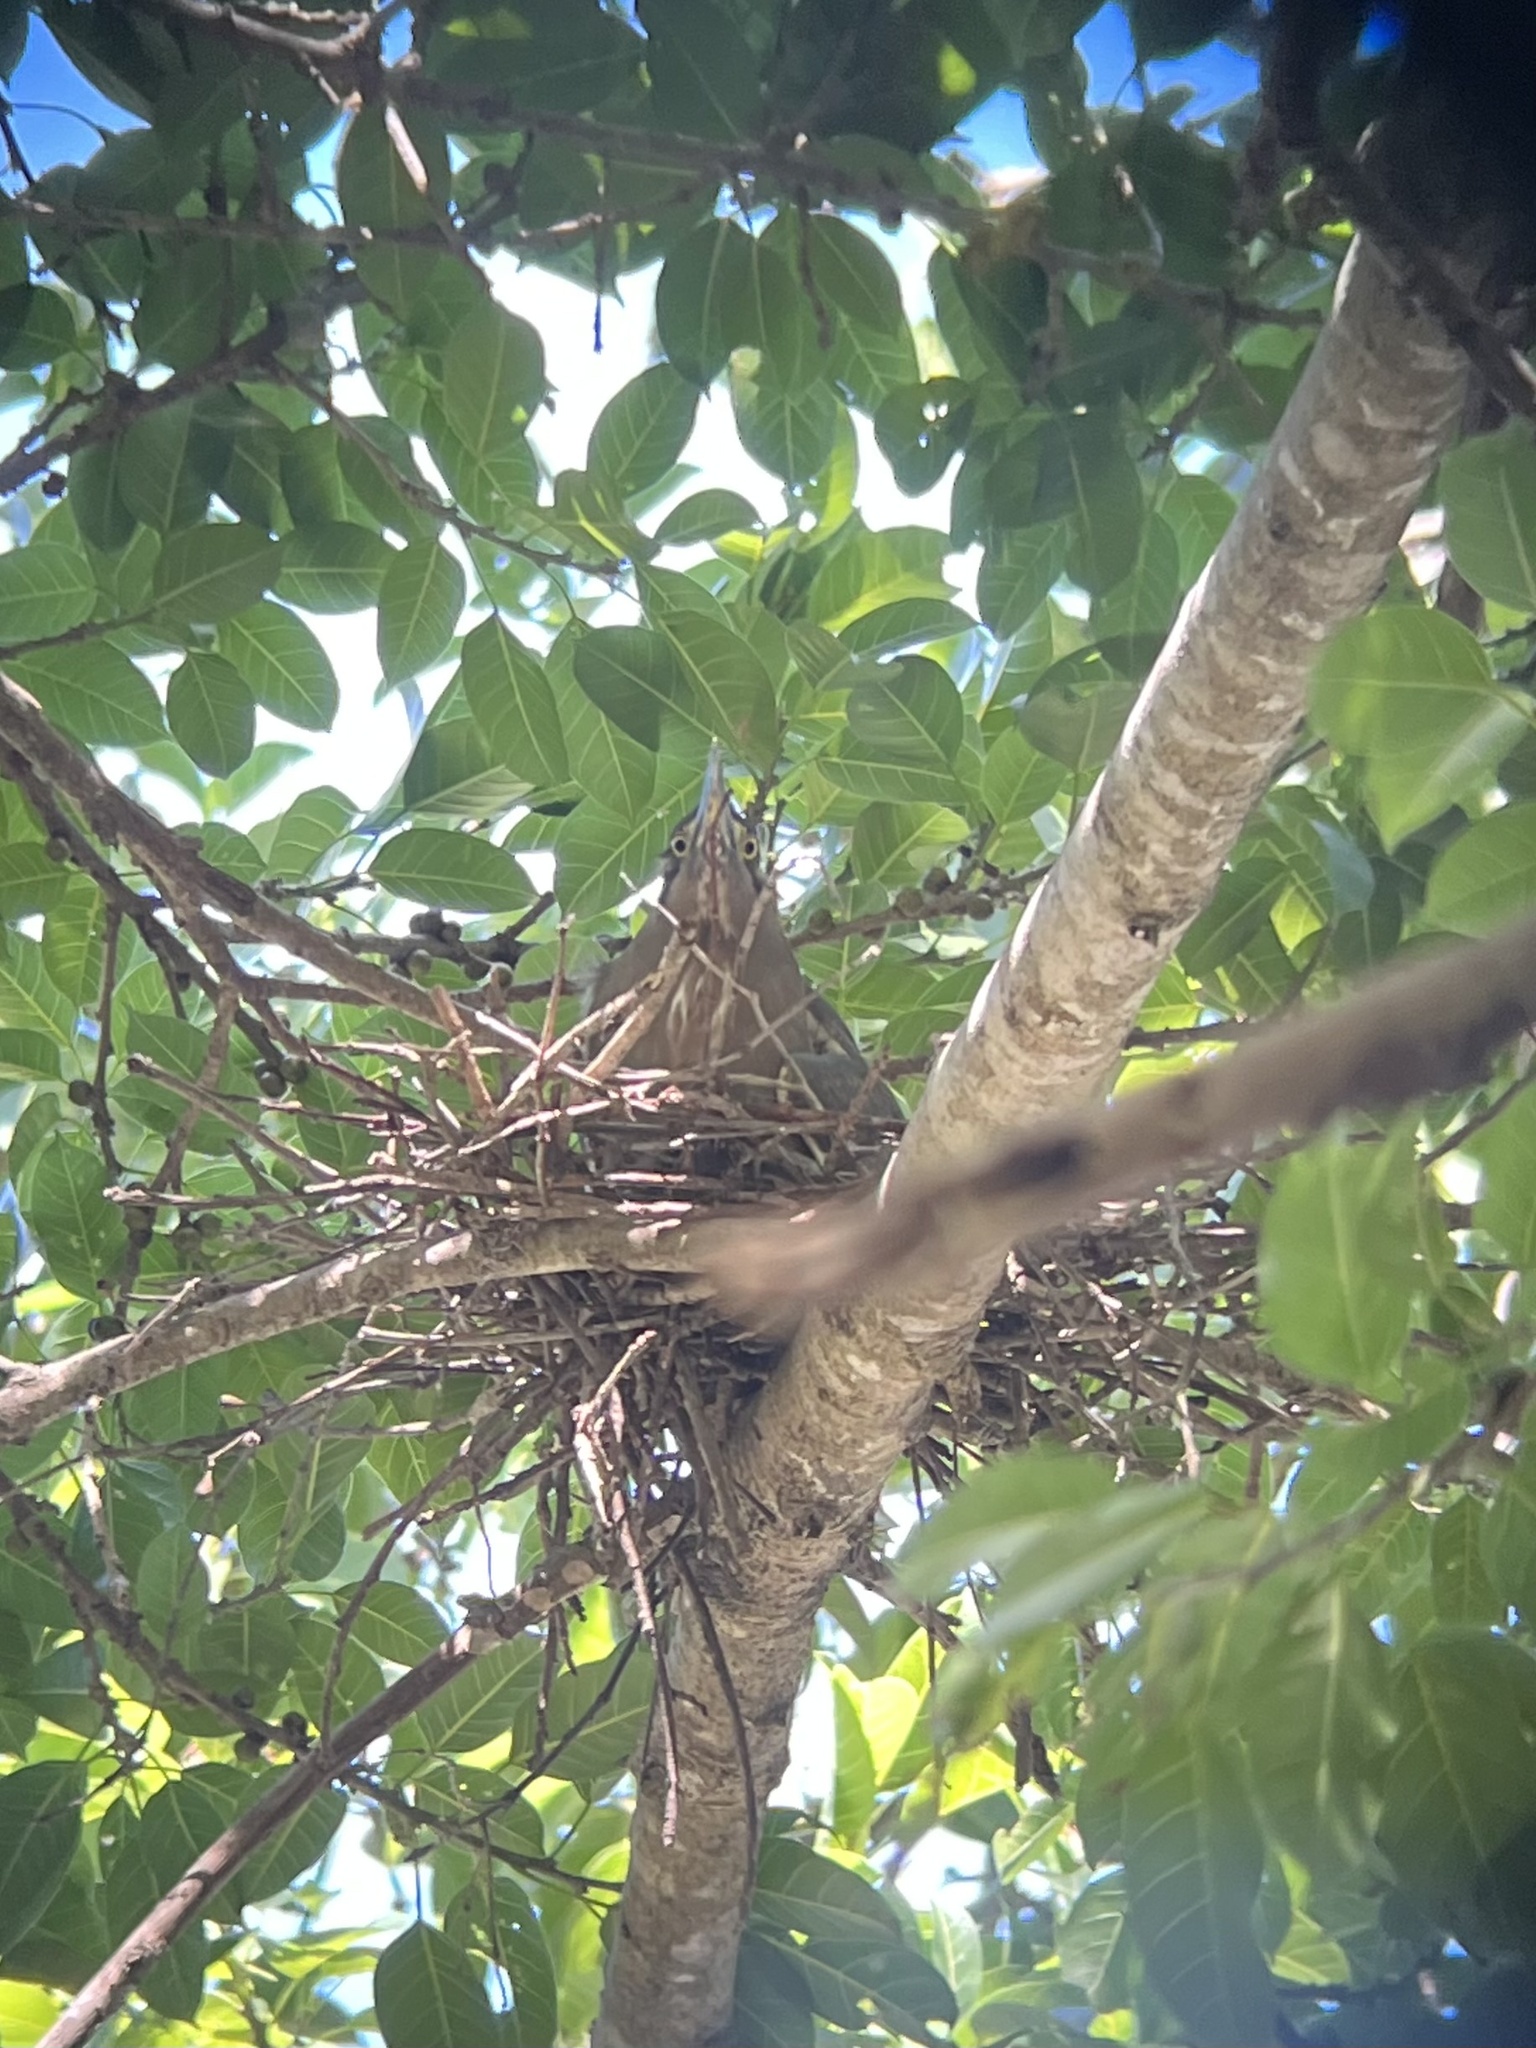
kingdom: Animalia
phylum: Chordata
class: Aves
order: Pelecaniformes
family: Ardeidae
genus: Butorides
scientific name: Butorides striata
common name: Striated heron
